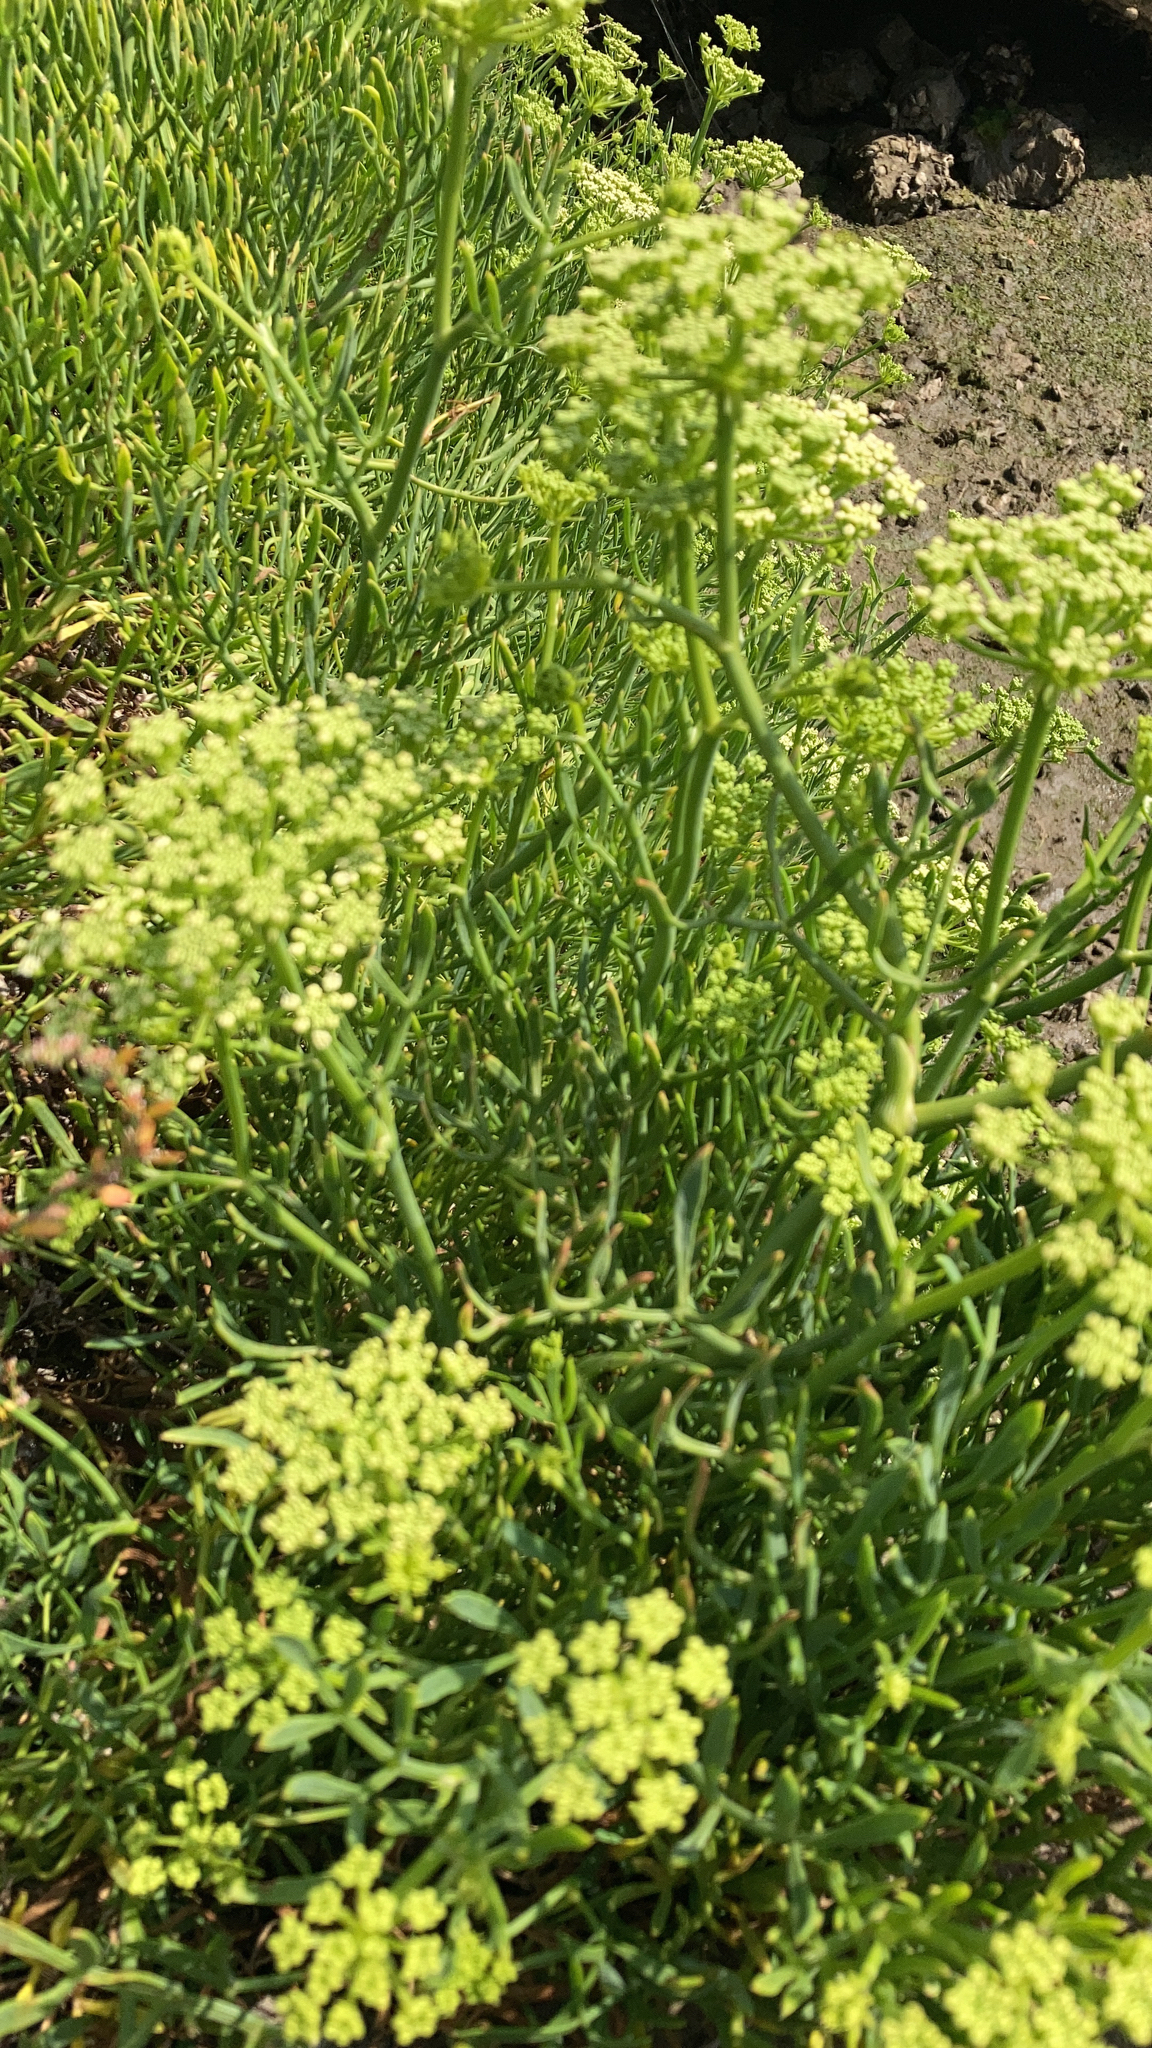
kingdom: Plantae
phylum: Tracheophyta
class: Magnoliopsida
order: Apiales
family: Apiaceae
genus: Crithmum
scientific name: Crithmum maritimum
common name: Rock samphire
